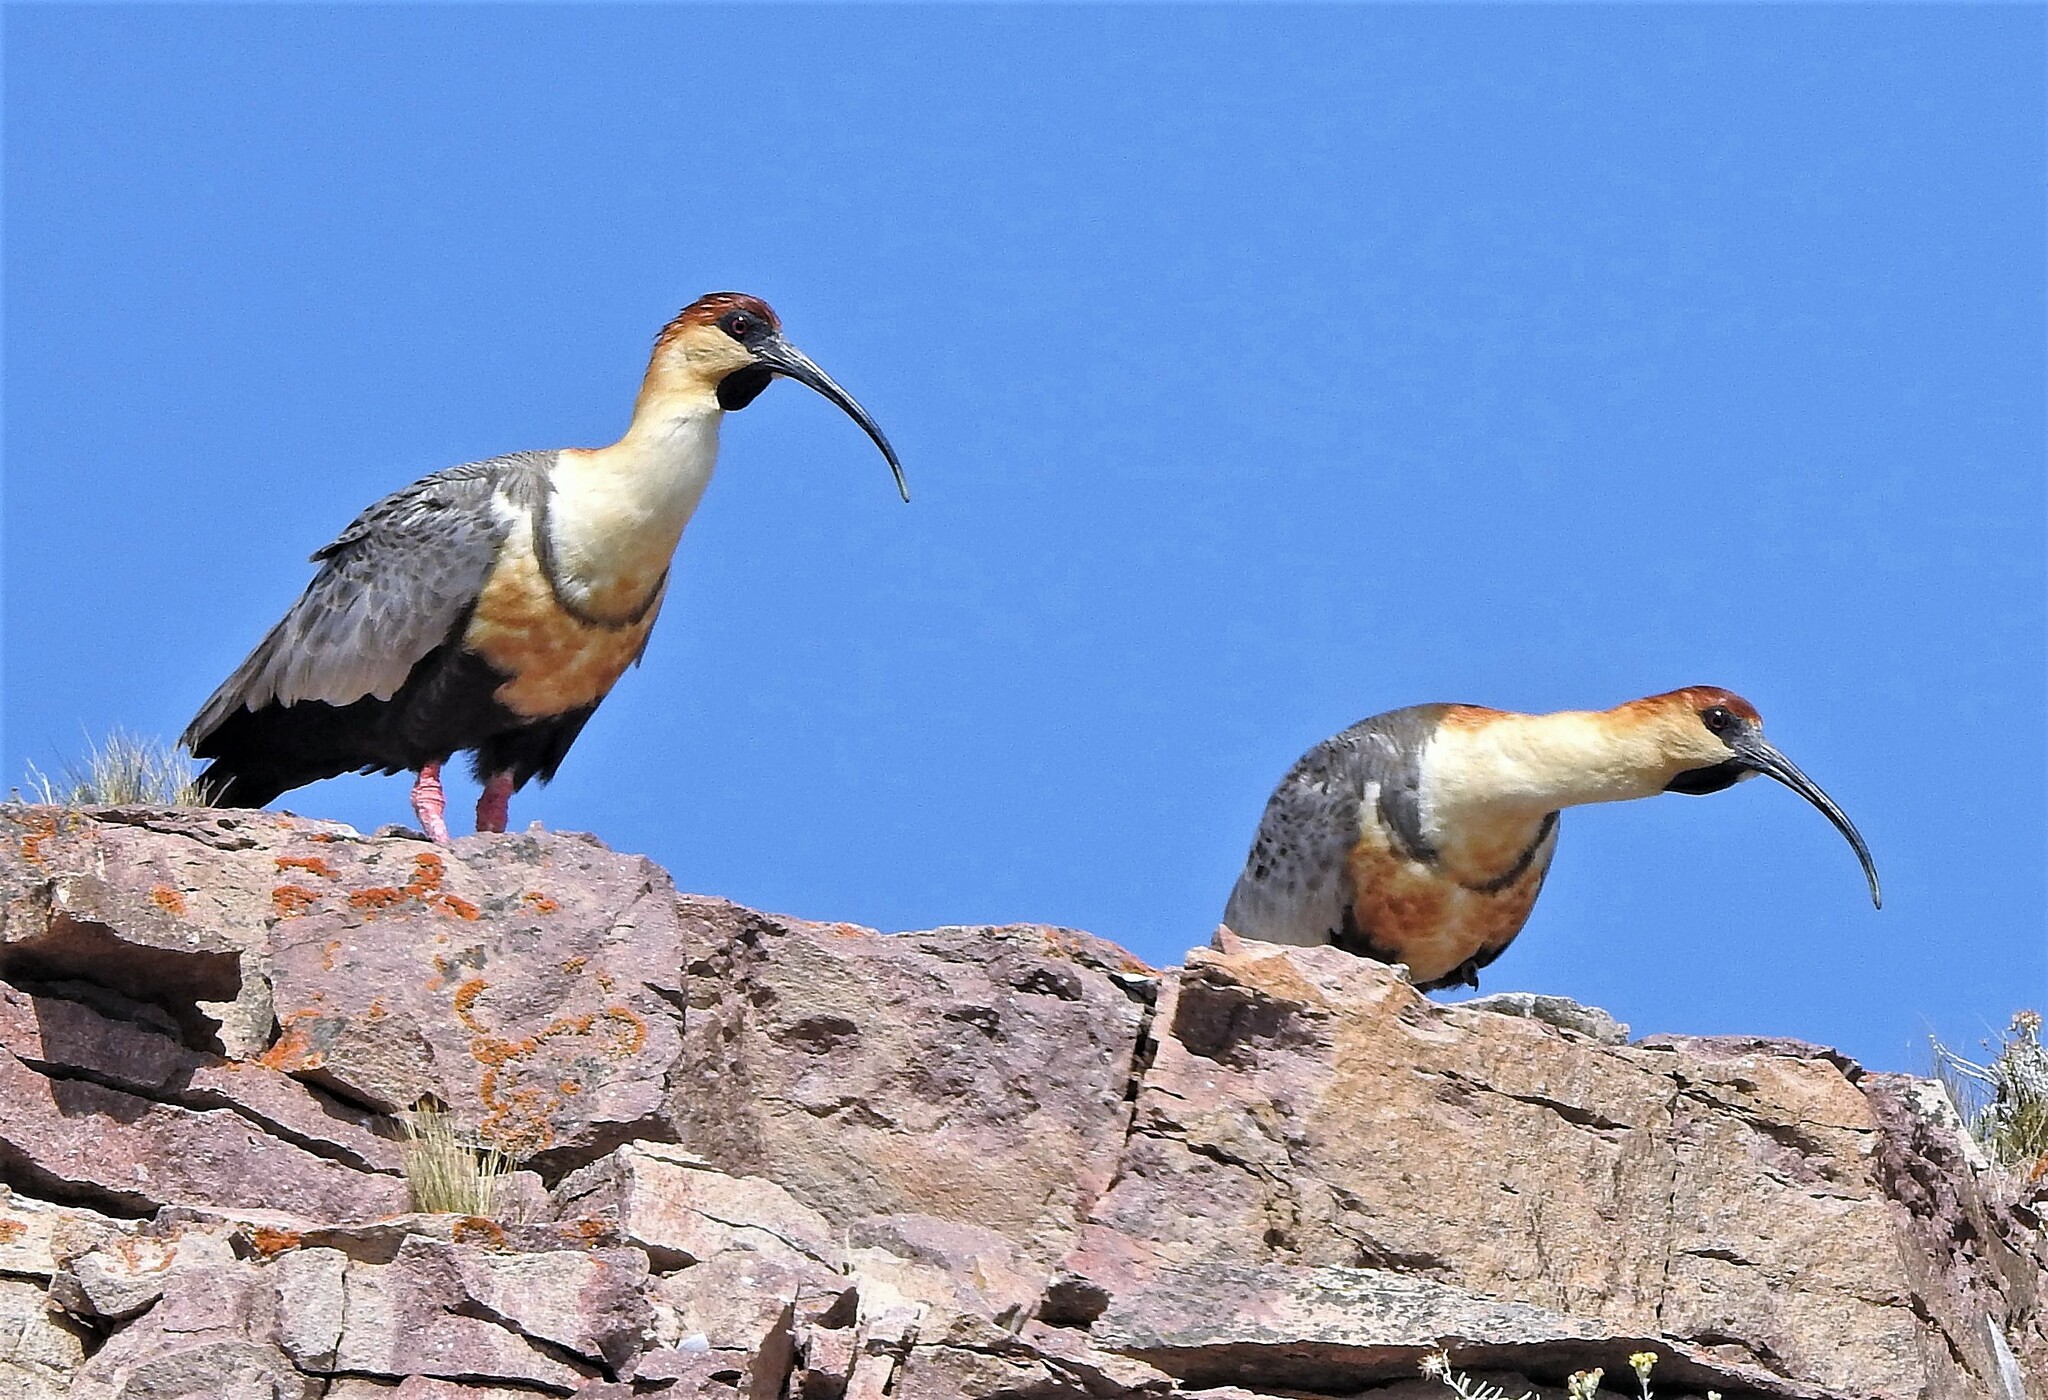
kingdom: Animalia
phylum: Chordata
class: Aves
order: Pelecaniformes
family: Threskiornithidae
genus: Theristicus
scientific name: Theristicus melanopis
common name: Black-faced ibis
